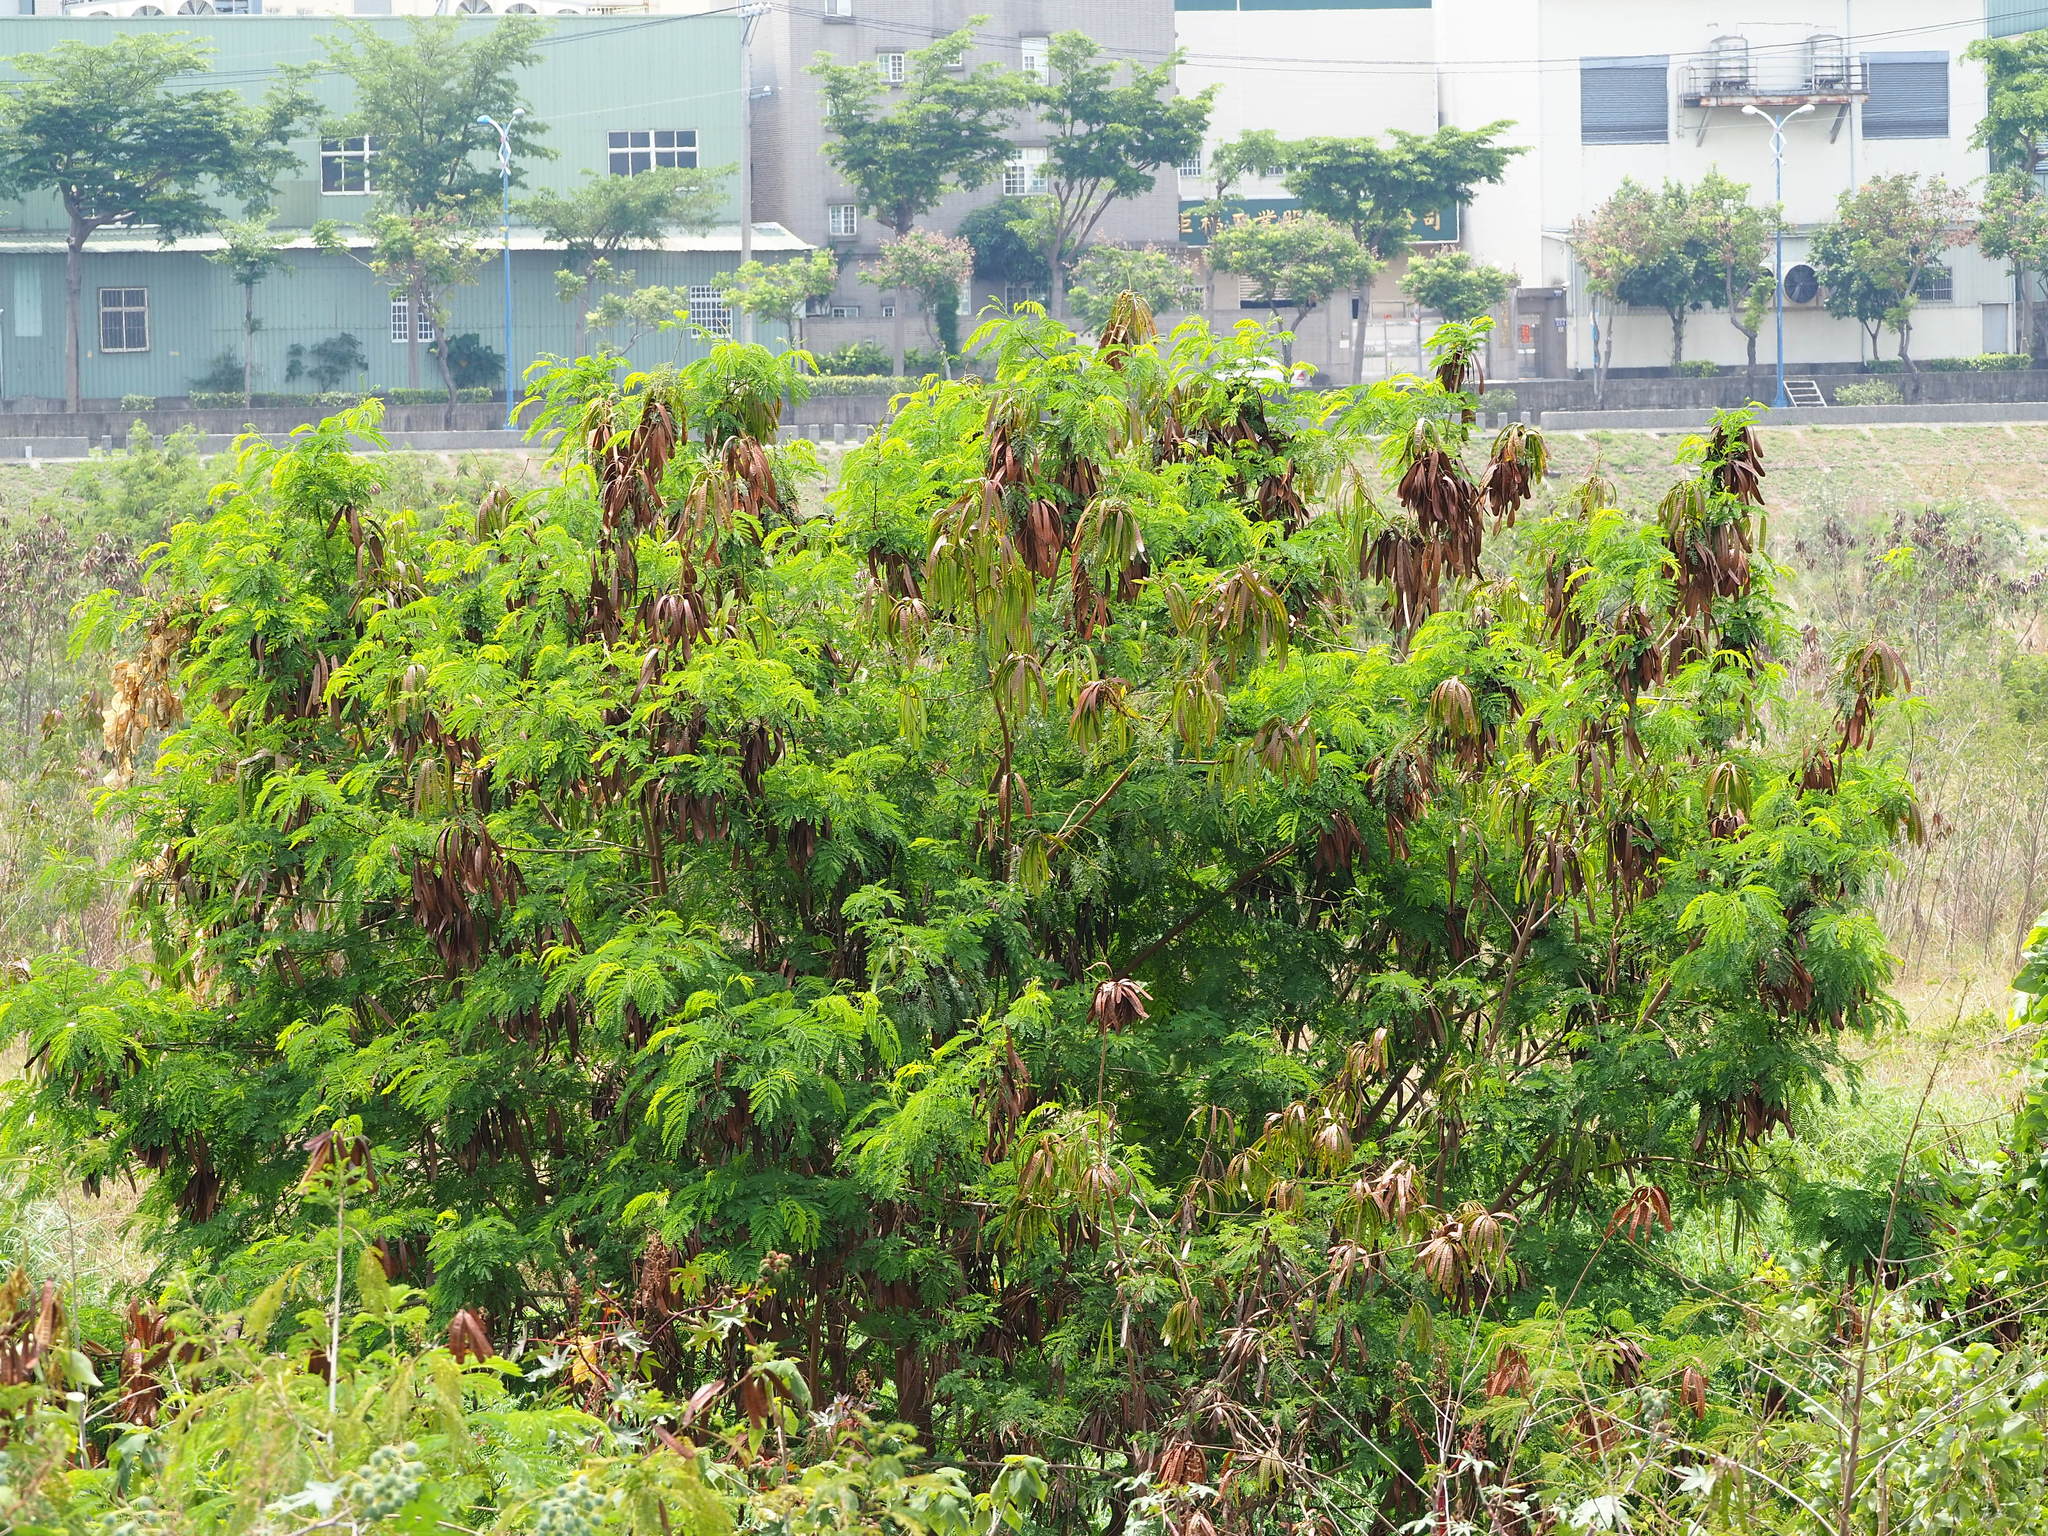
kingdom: Plantae
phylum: Tracheophyta
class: Magnoliopsida
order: Fabales
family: Fabaceae
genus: Leucaena
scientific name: Leucaena leucocephala
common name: White leadtree
